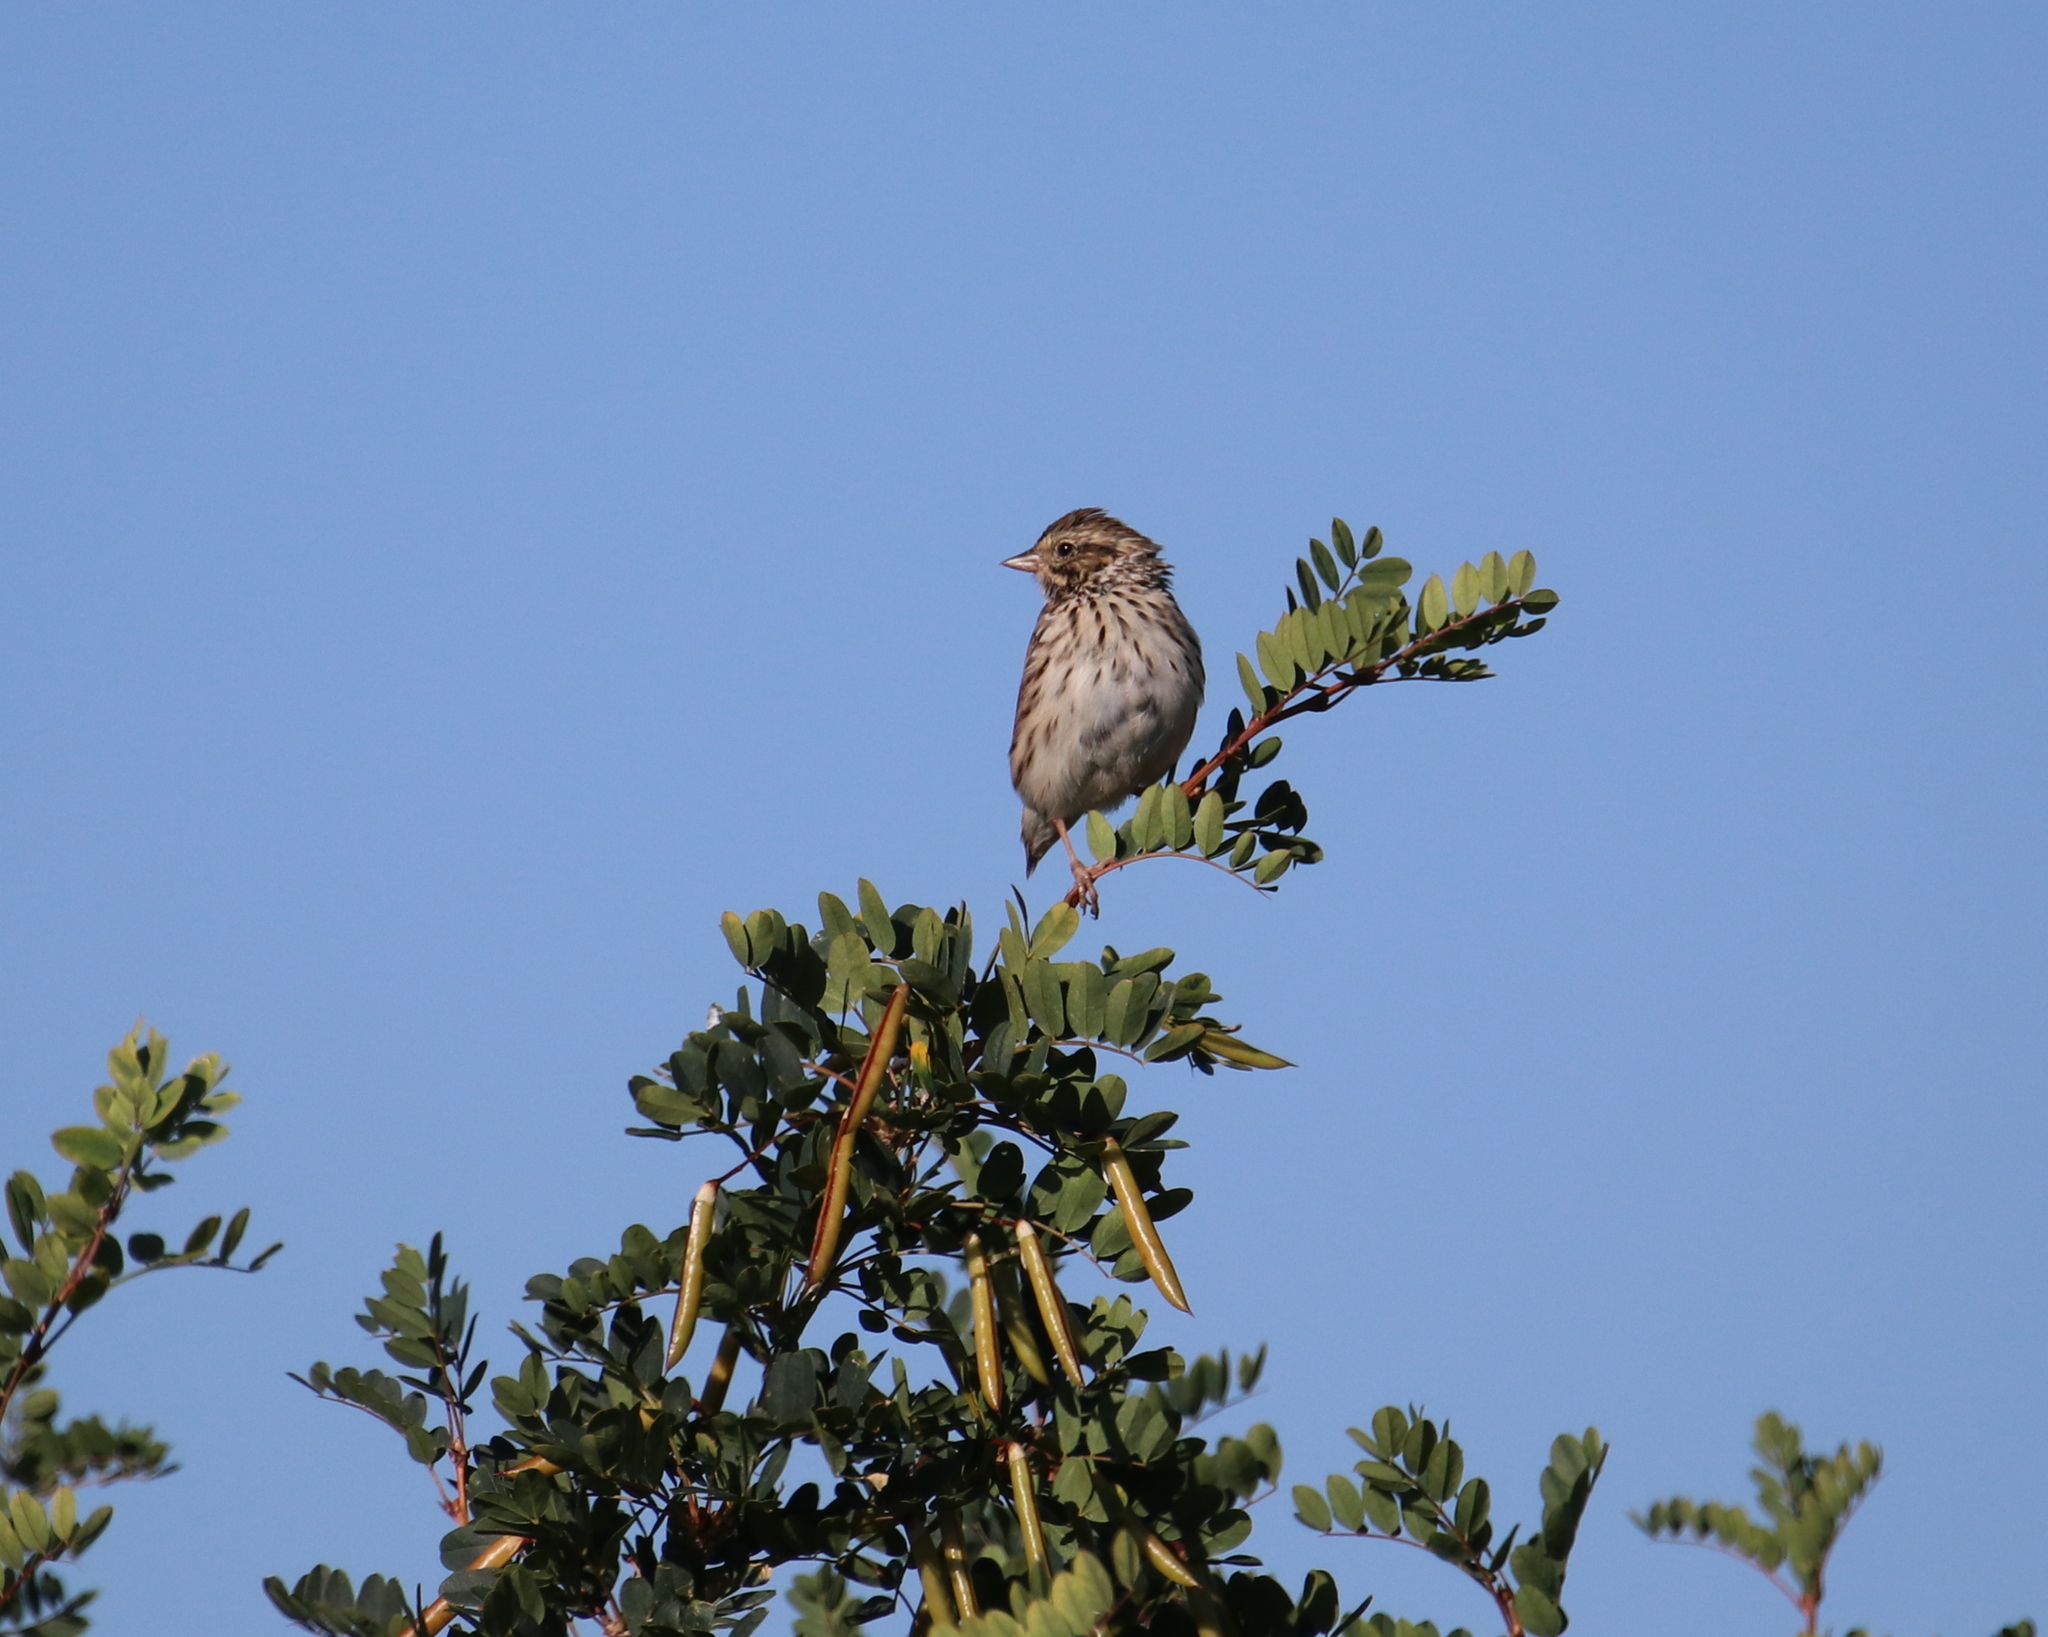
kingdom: Animalia
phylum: Chordata
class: Aves
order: Passeriformes
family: Passerellidae
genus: Passerculus
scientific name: Passerculus sandwichensis
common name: Savannah sparrow
